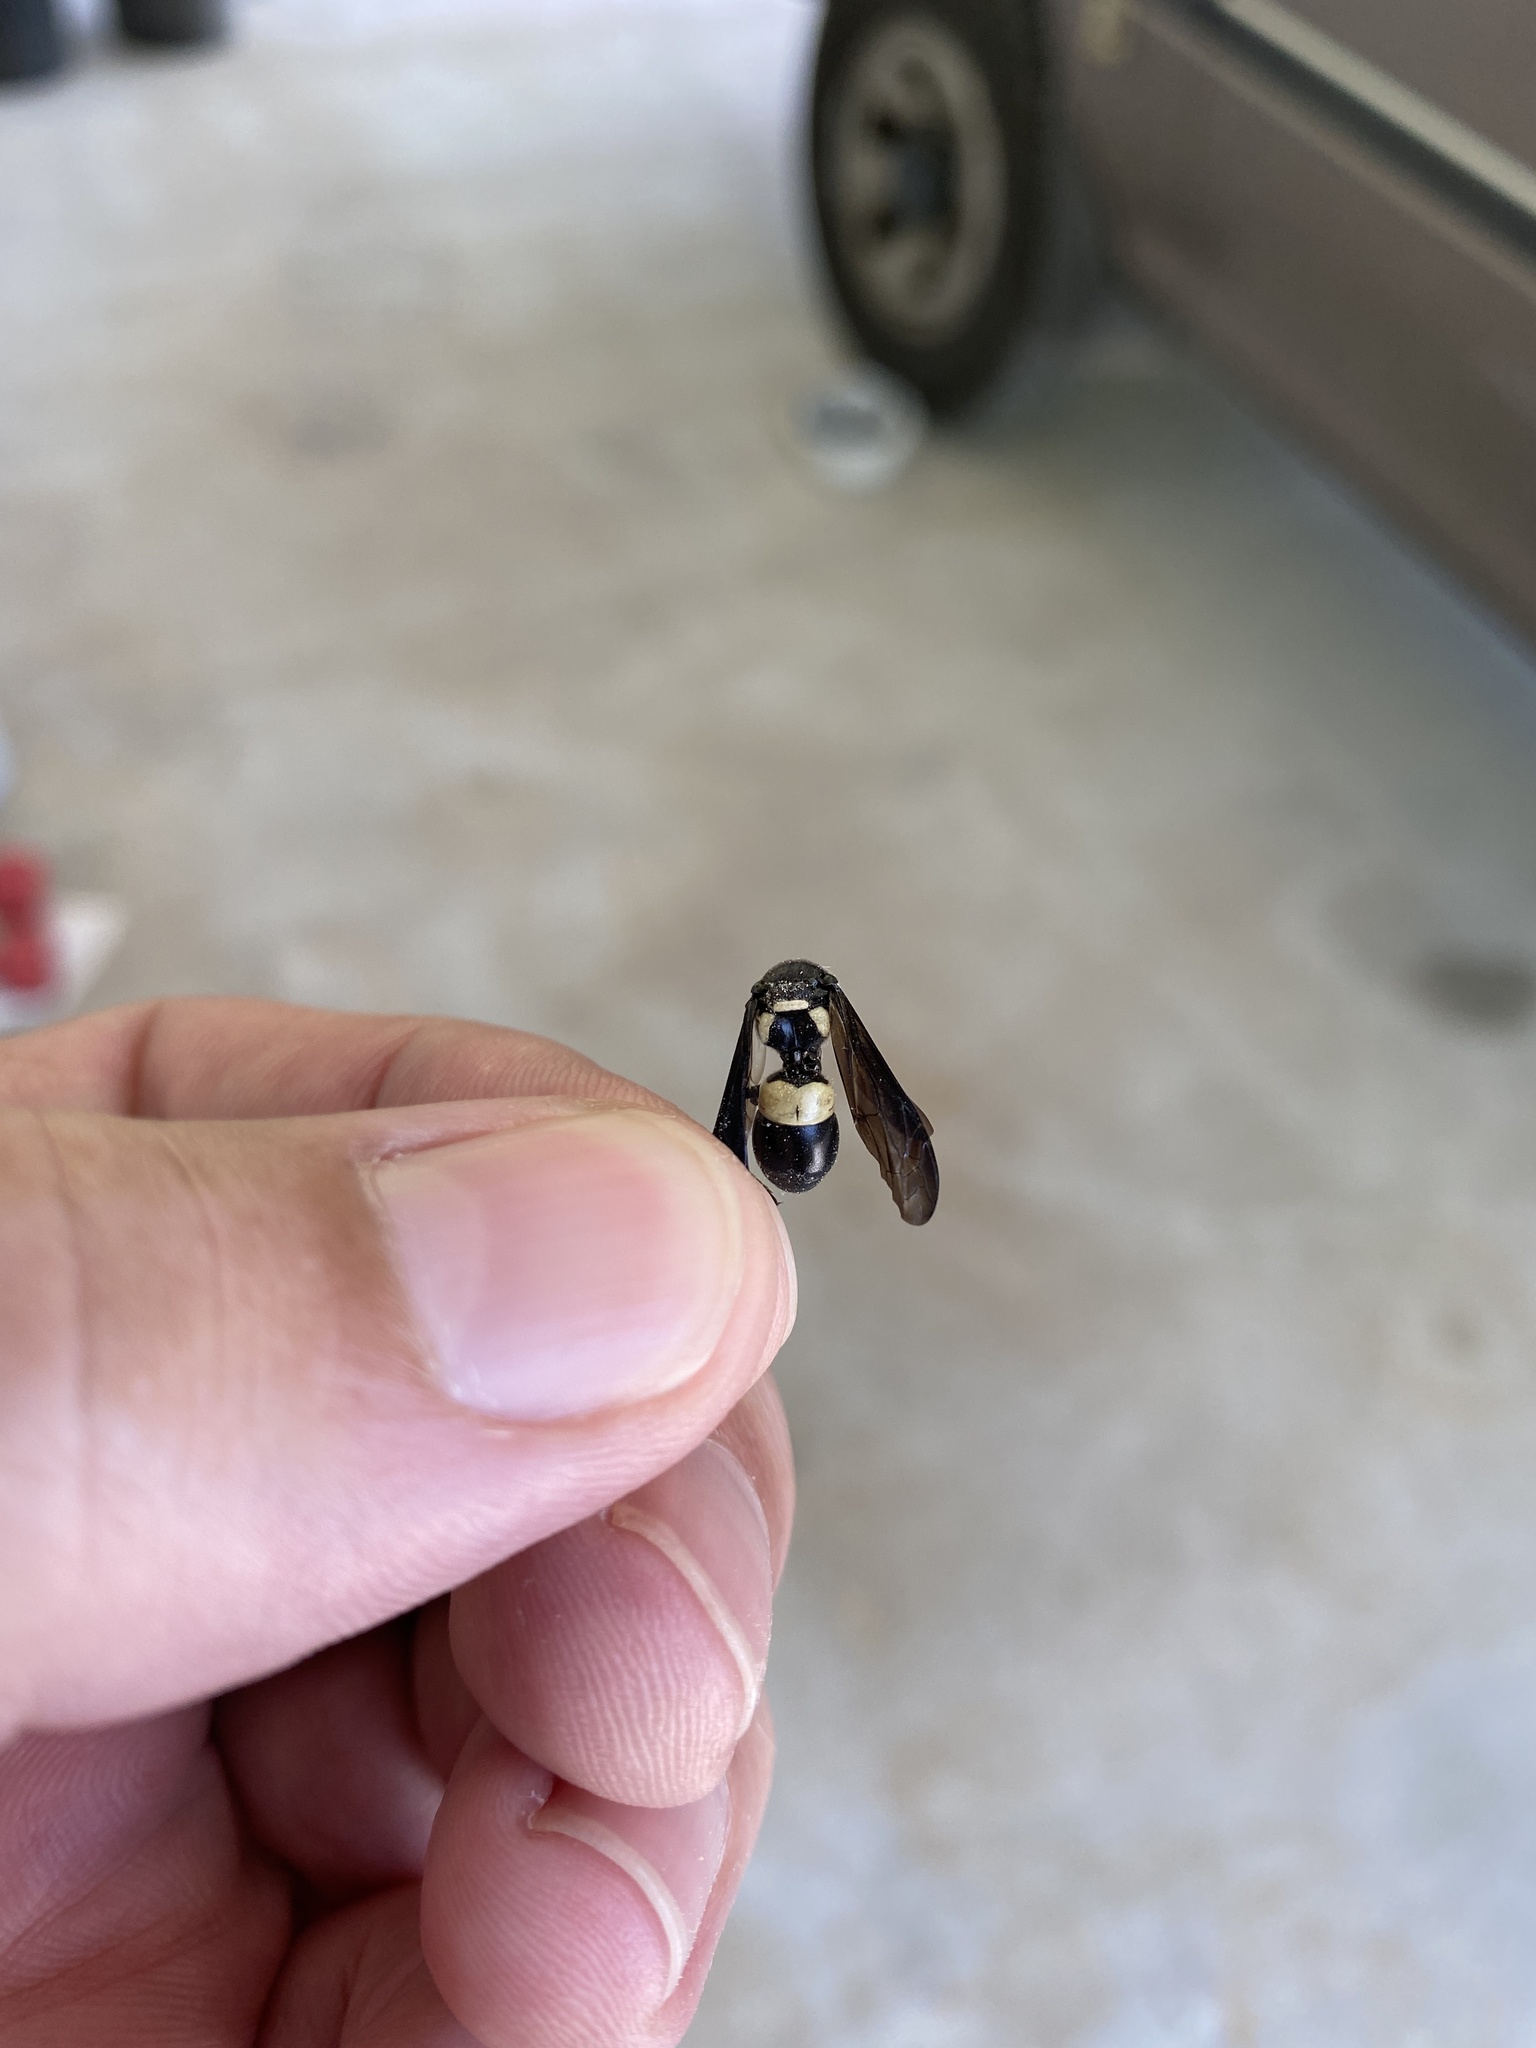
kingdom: Animalia
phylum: Arthropoda
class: Insecta
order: Hymenoptera
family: Eumenidae
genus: Euodynerus
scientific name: Euodynerus bidens
